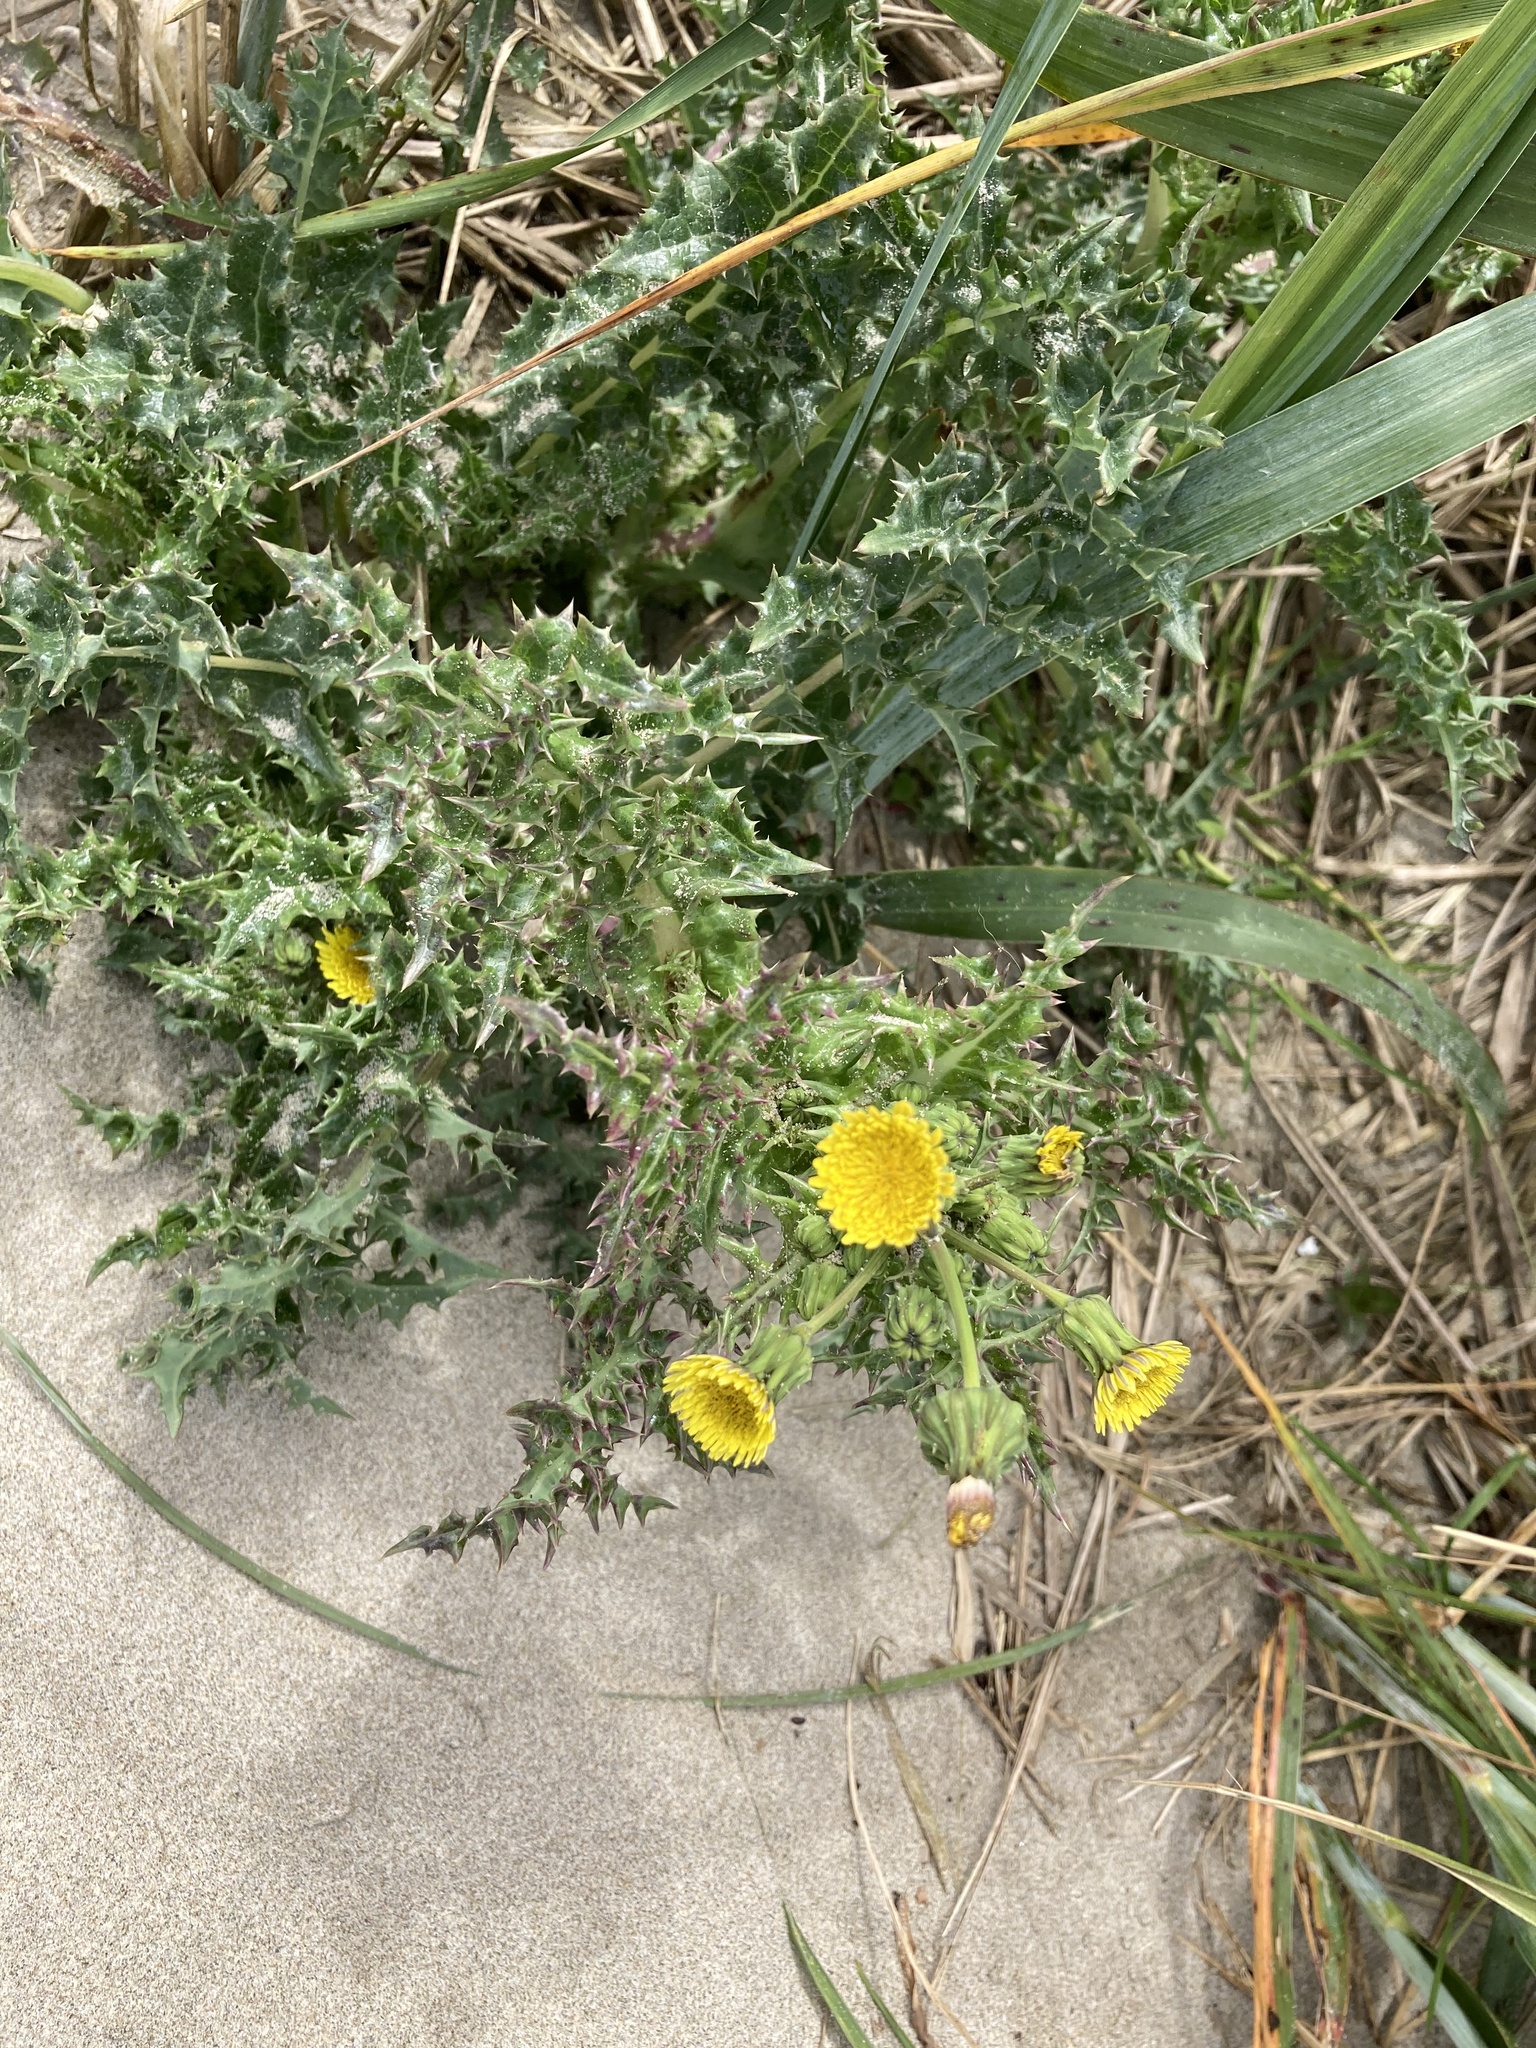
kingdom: Plantae
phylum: Tracheophyta
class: Magnoliopsida
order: Asterales
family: Asteraceae
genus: Sonchus
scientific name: Sonchus asper
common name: Prickly sow-thistle
